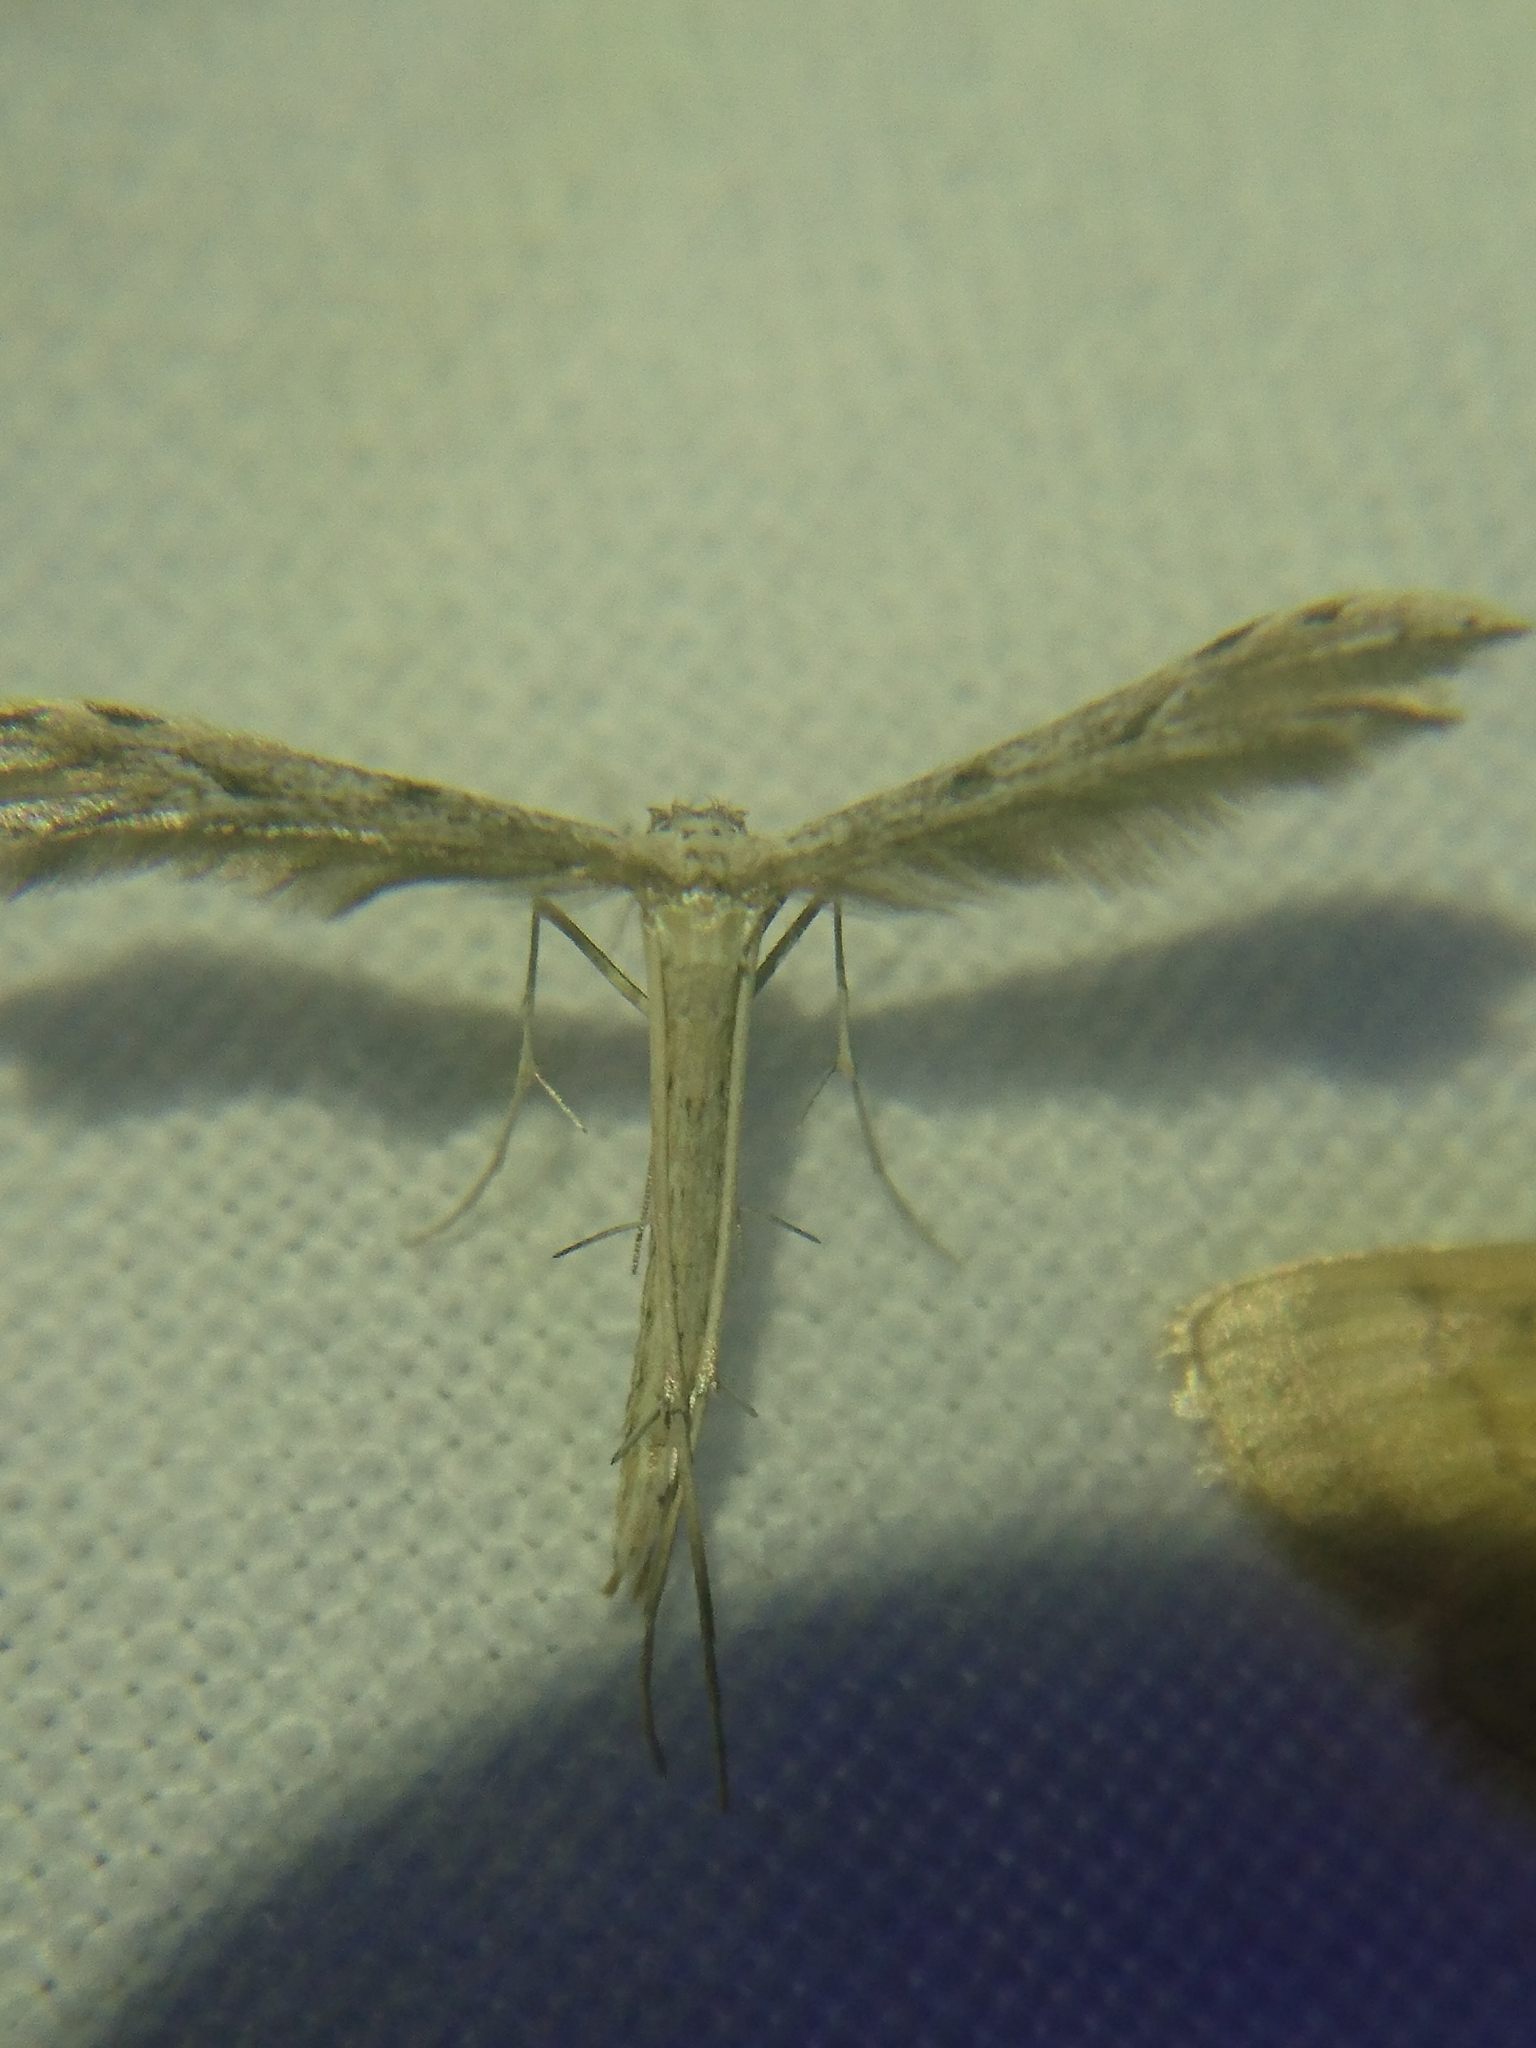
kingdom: Animalia
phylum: Arthropoda
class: Insecta
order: Lepidoptera
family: Pterophoridae
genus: Pselnophorus
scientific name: Pselnophorus belfragei
